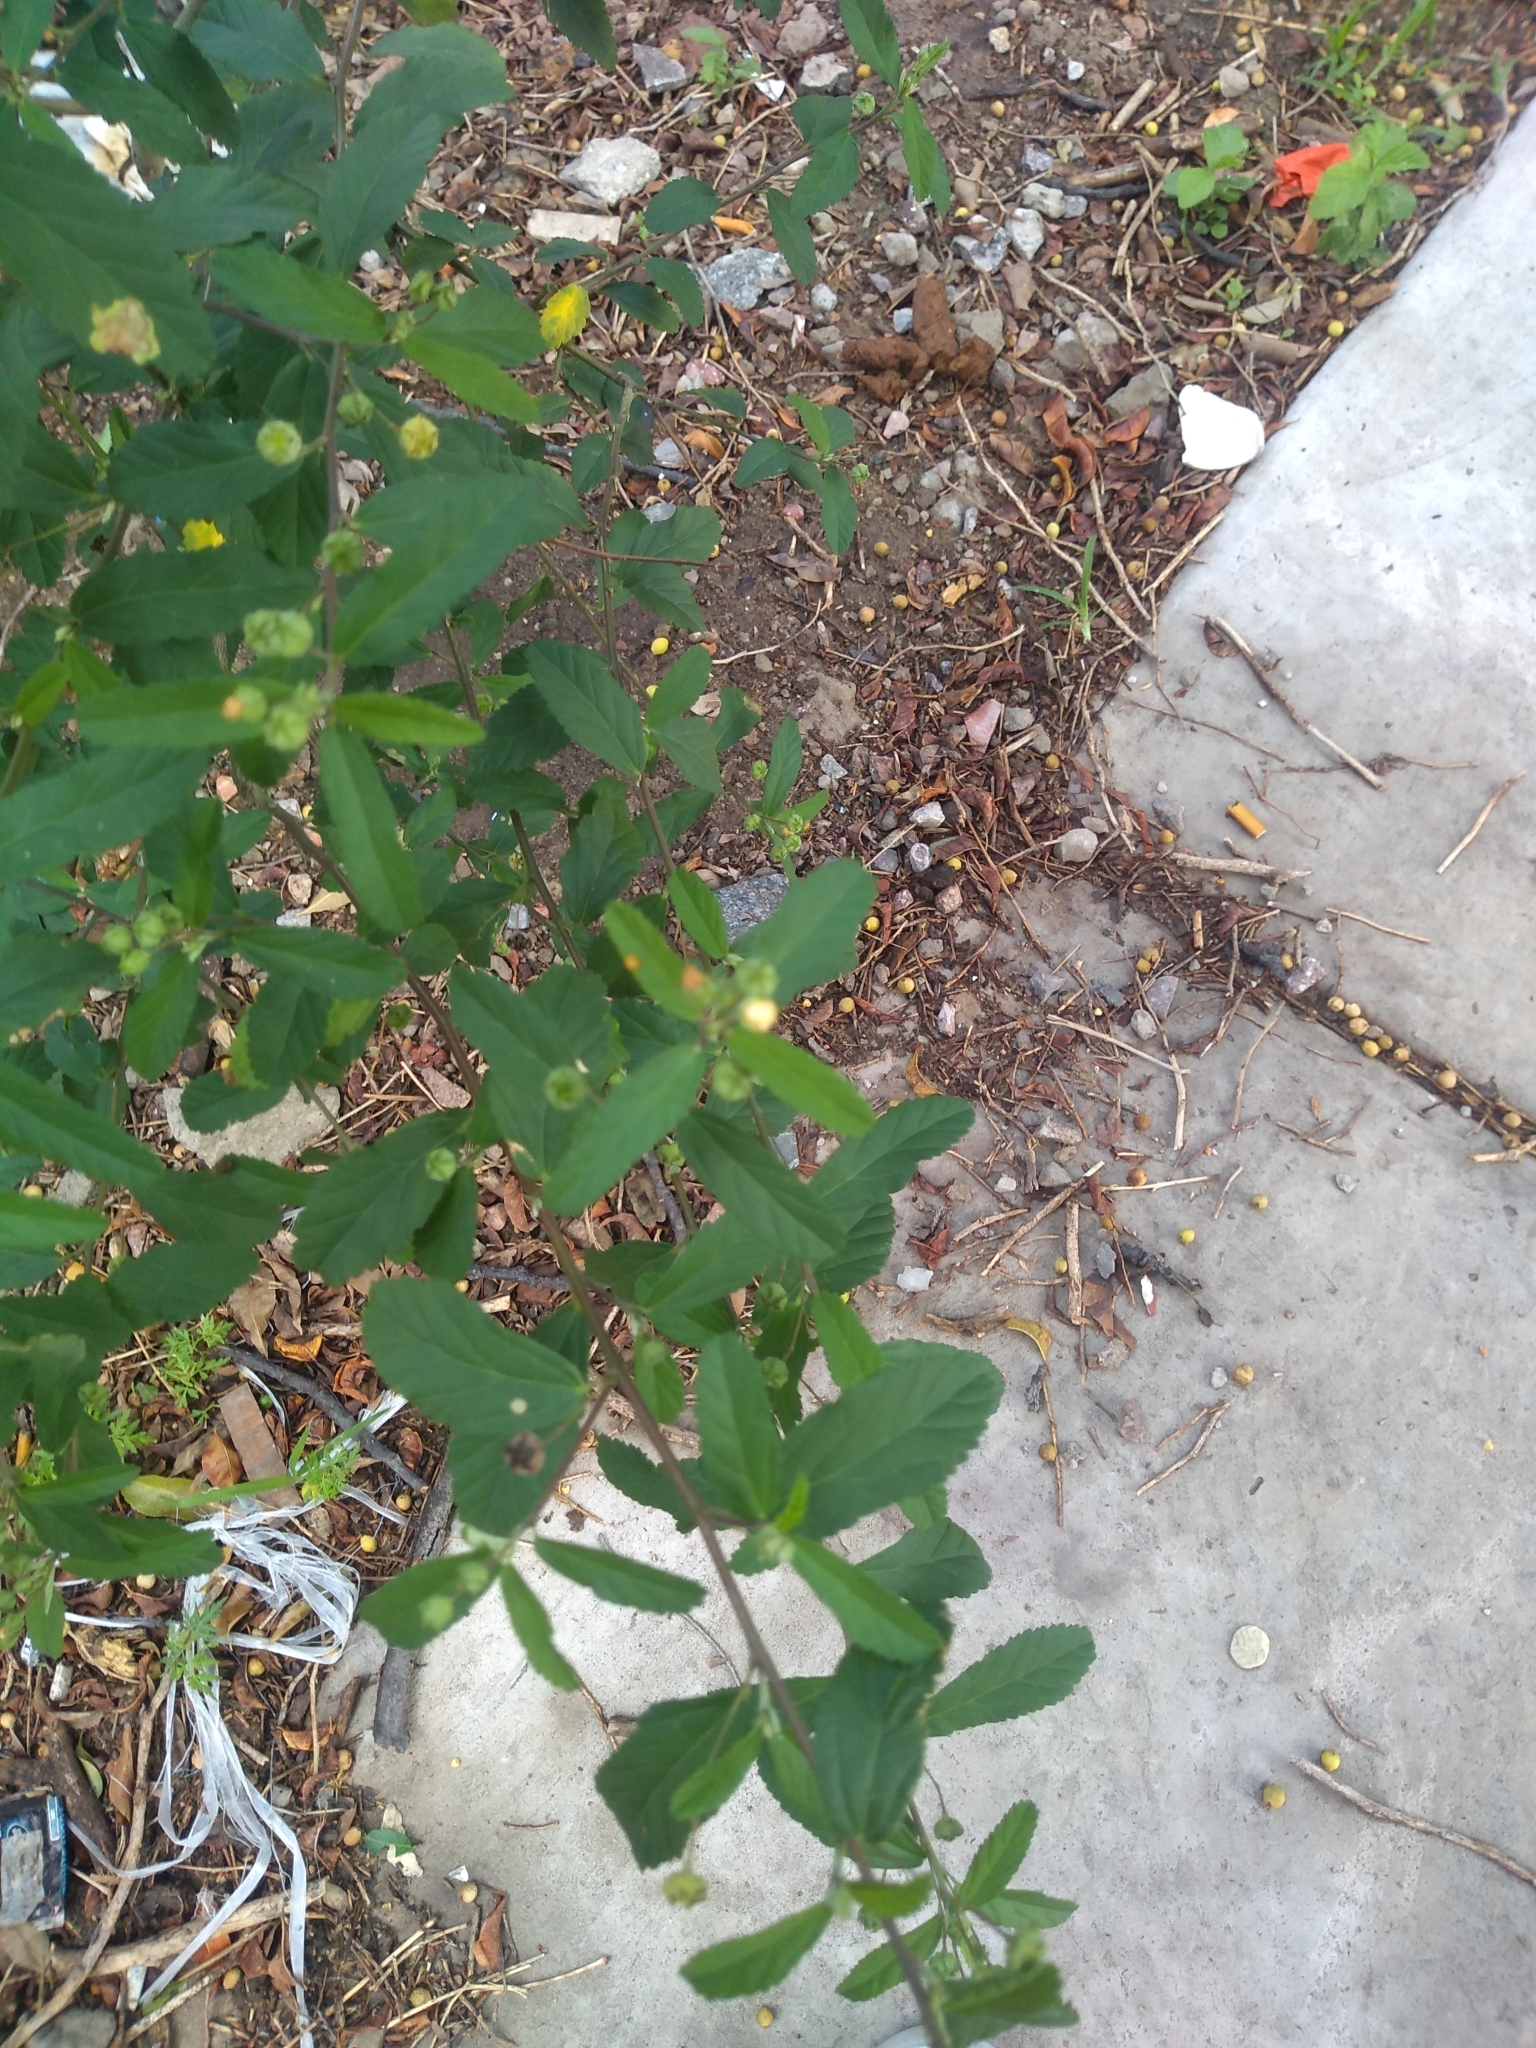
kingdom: Plantae
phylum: Tracheophyta
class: Magnoliopsida
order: Malvales
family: Malvaceae
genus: Sida
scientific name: Sida rhombifolia
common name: Queensland-hemp
